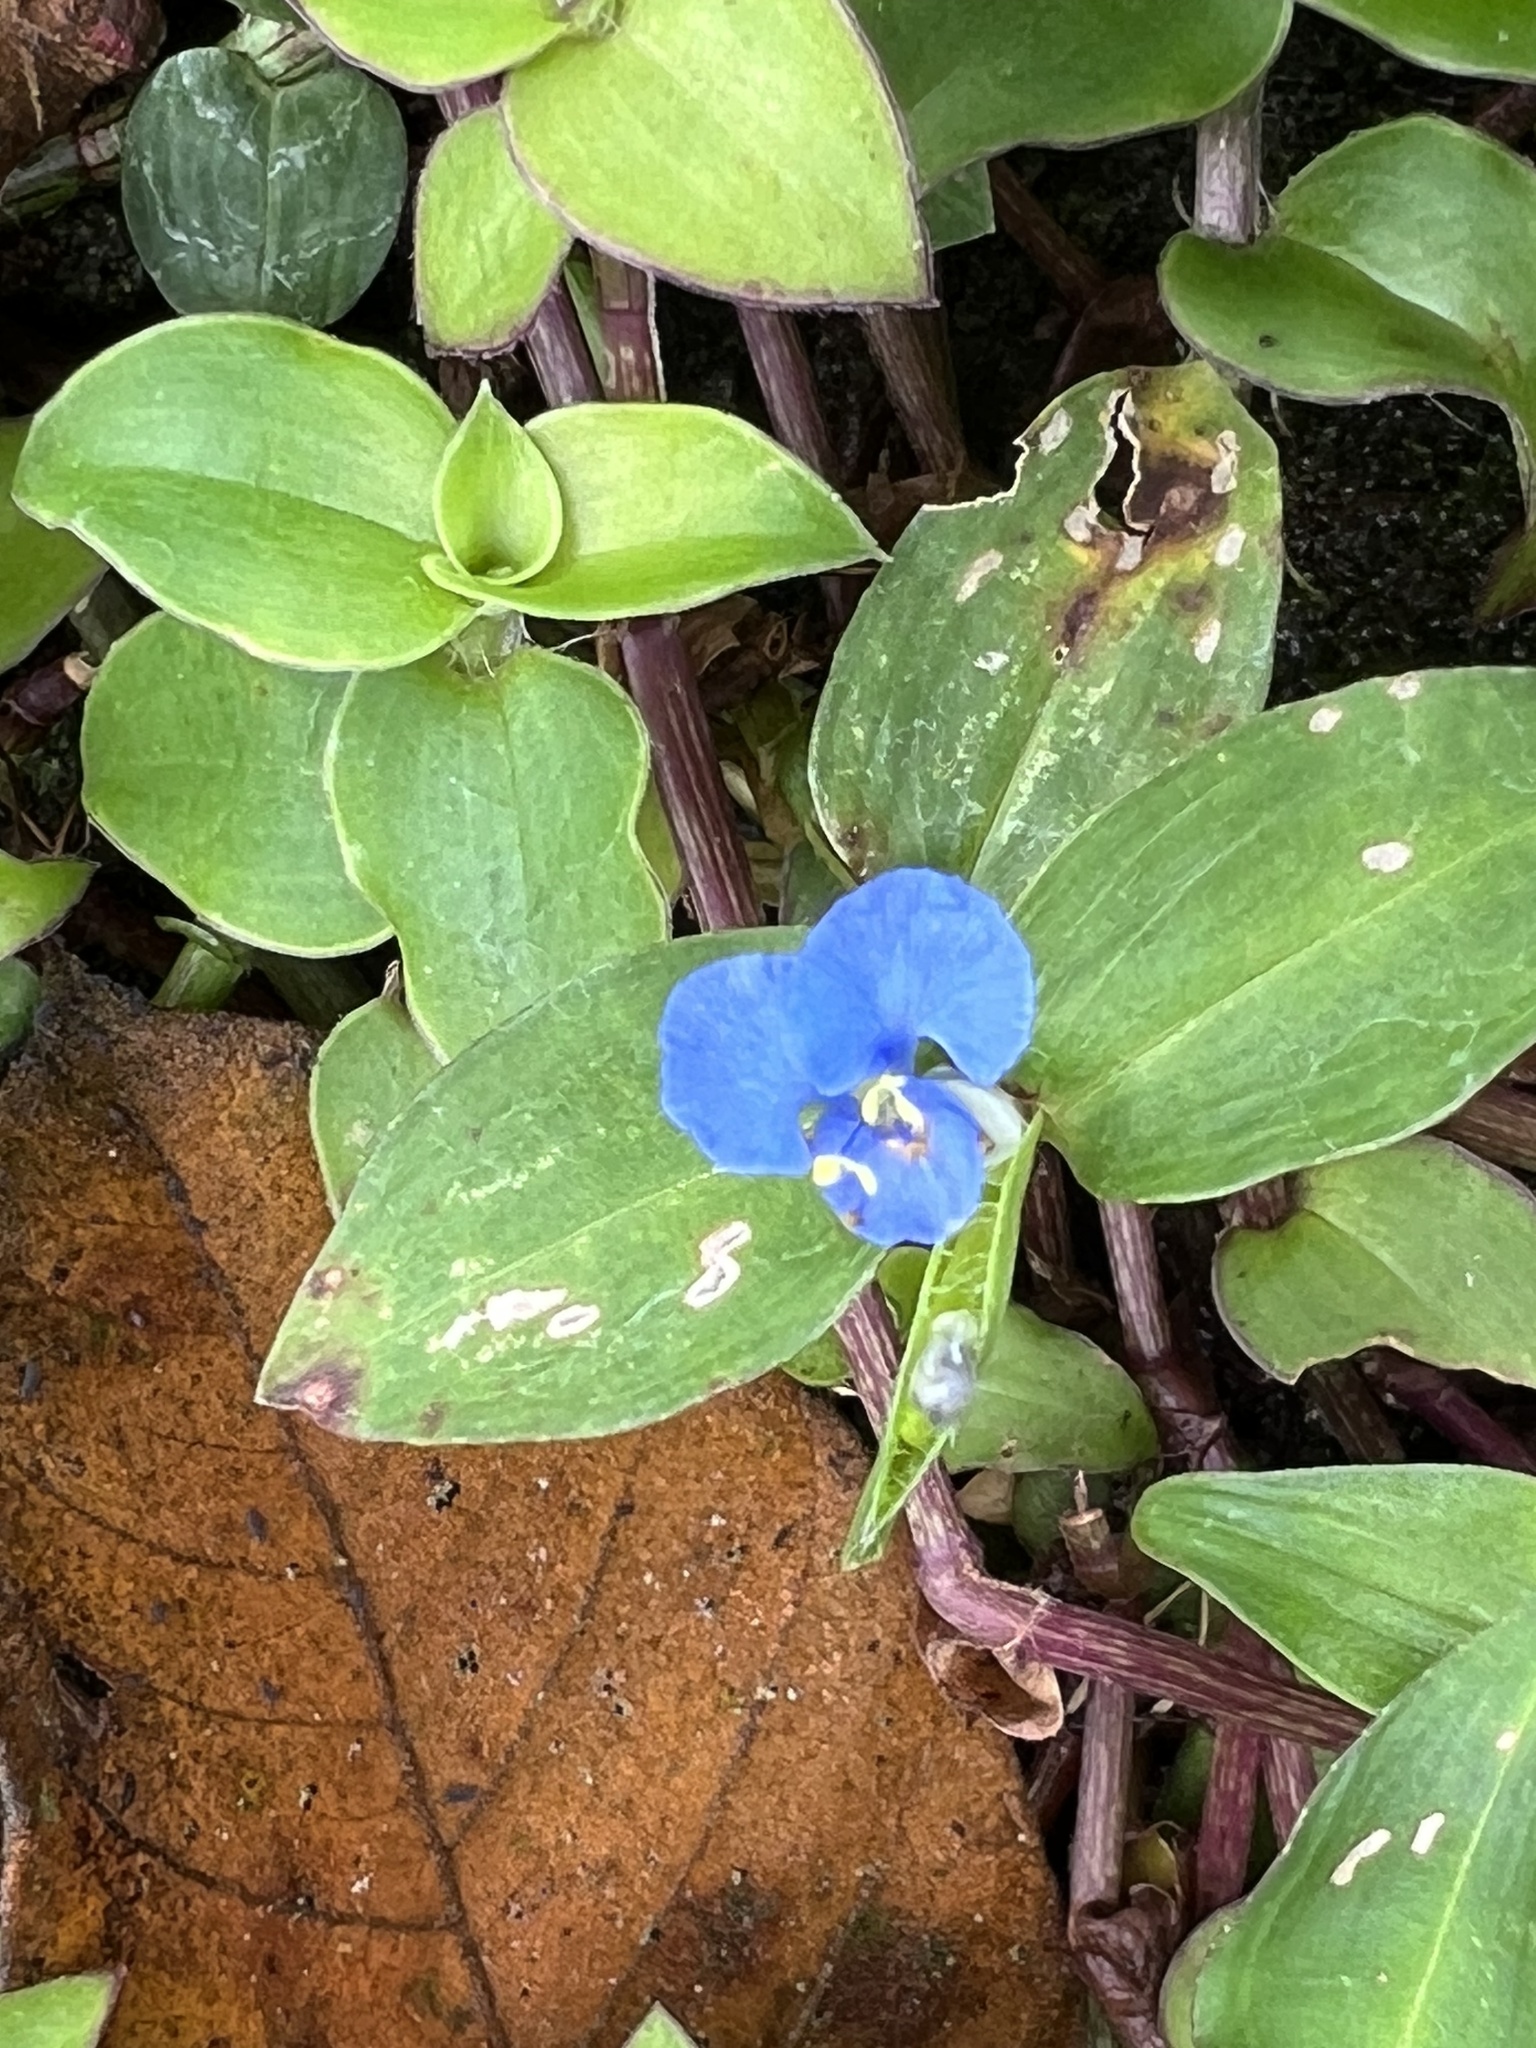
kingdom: Plantae
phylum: Tracheophyta
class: Liliopsida
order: Commelinales
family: Commelinaceae
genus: Commelina
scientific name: Commelina diffusa
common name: Climbing dayflower
